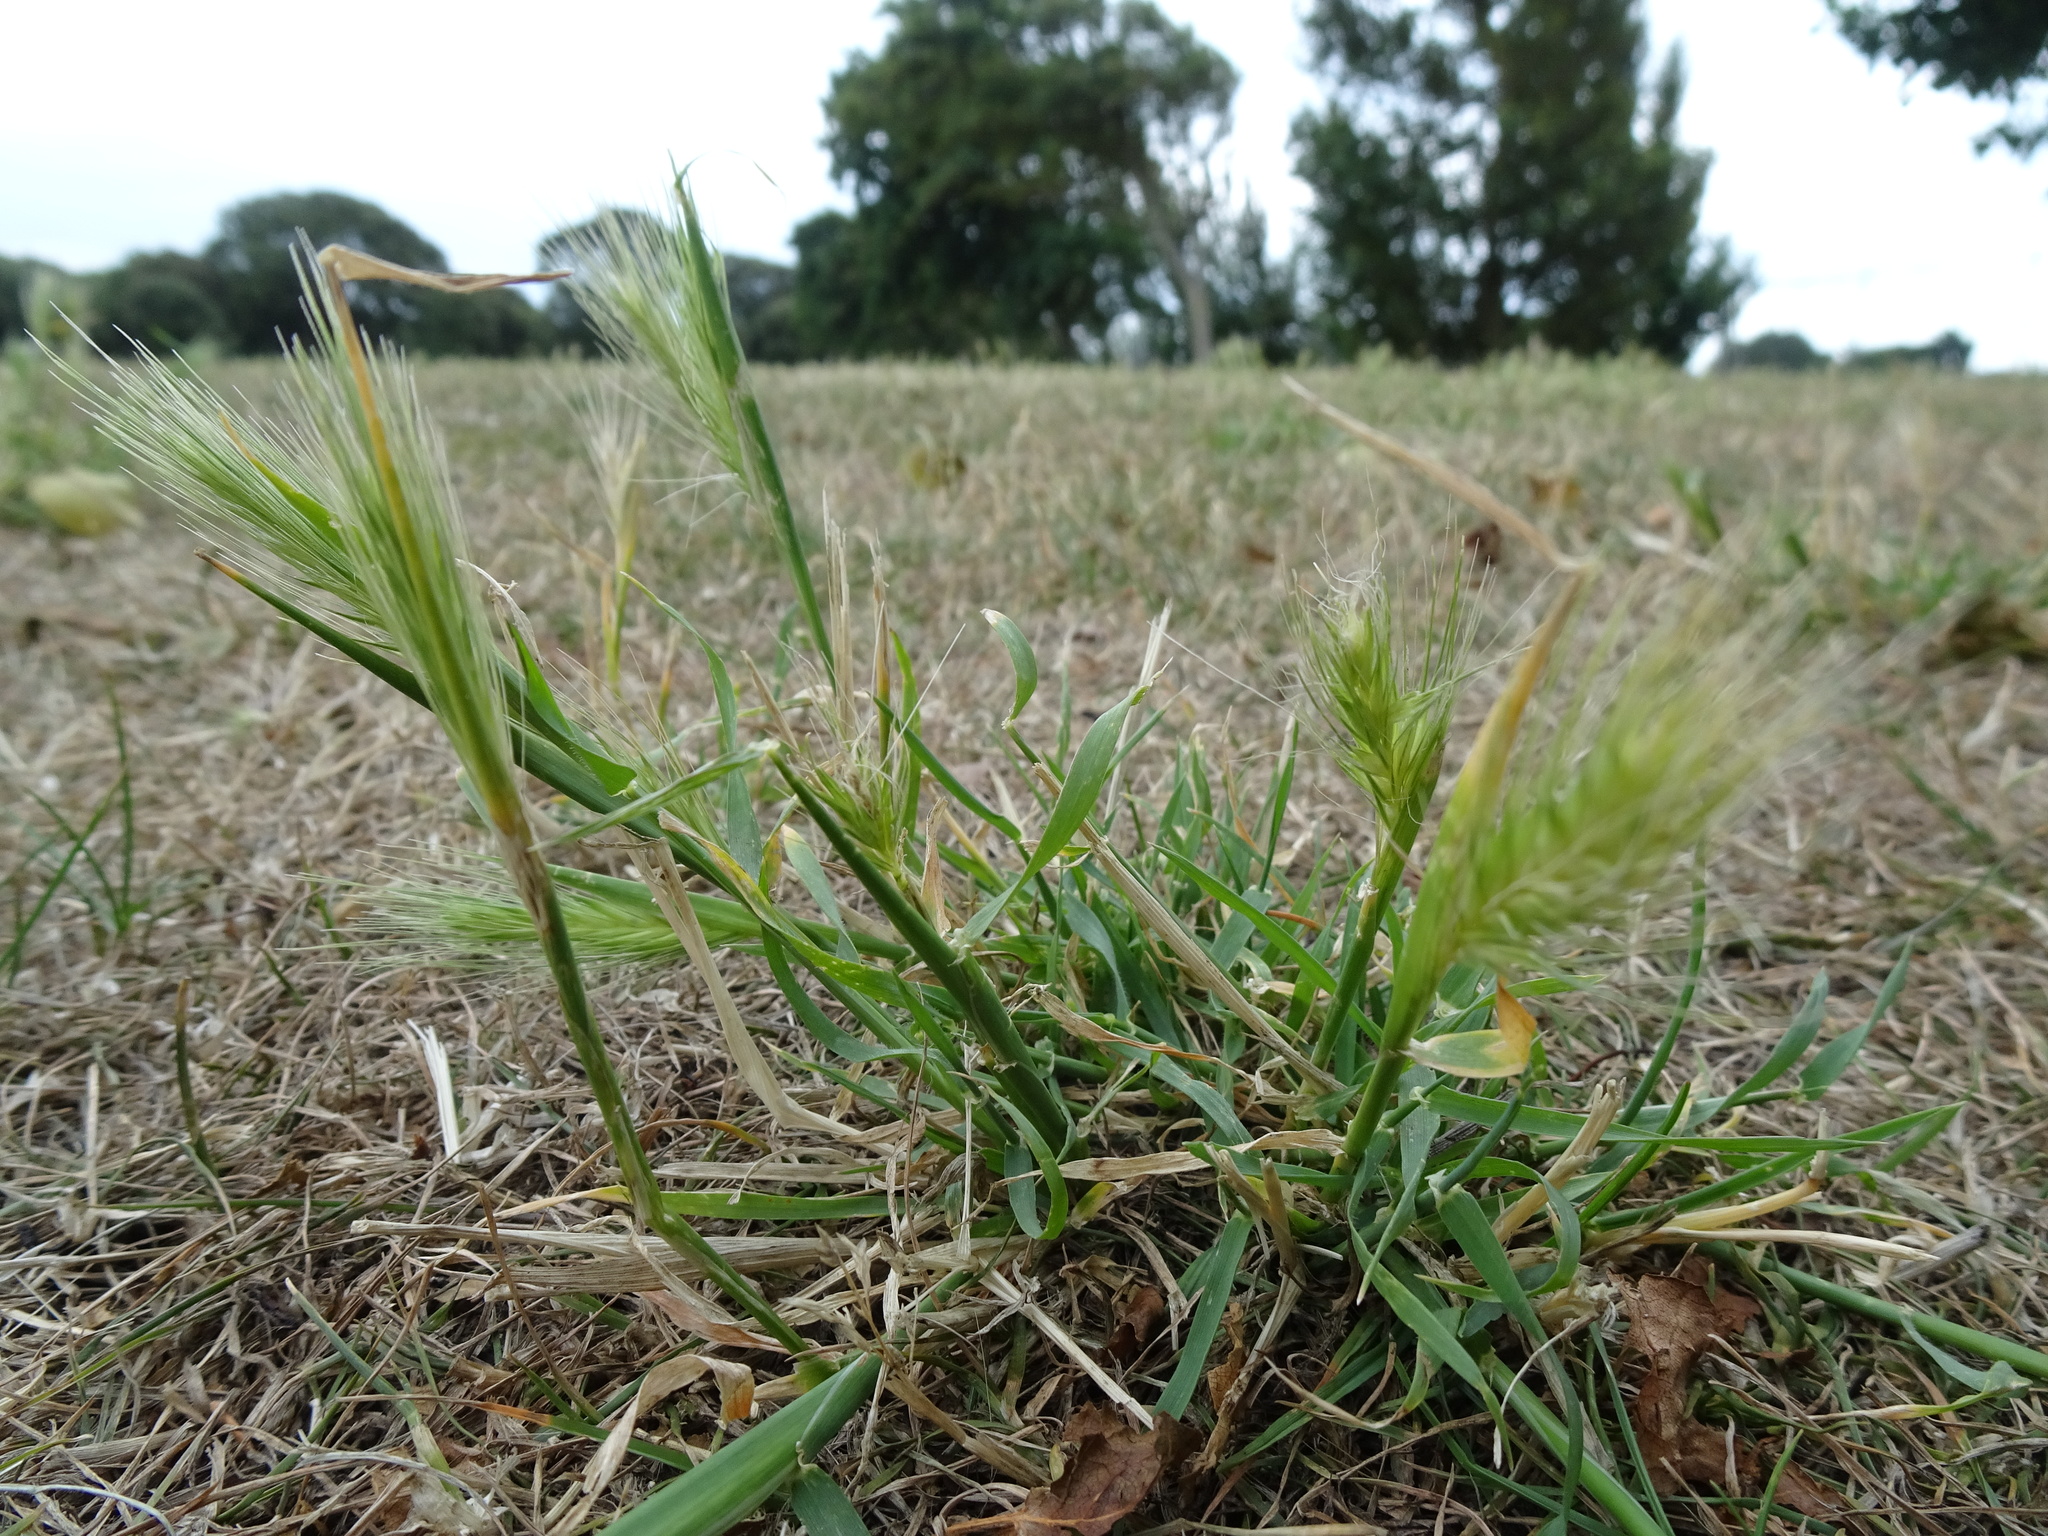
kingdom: Plantae
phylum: Tracheophyta
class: Liliopsida
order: Poales
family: Poaceae
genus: Hordeum
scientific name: Hordeum murinum
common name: Wall barley
